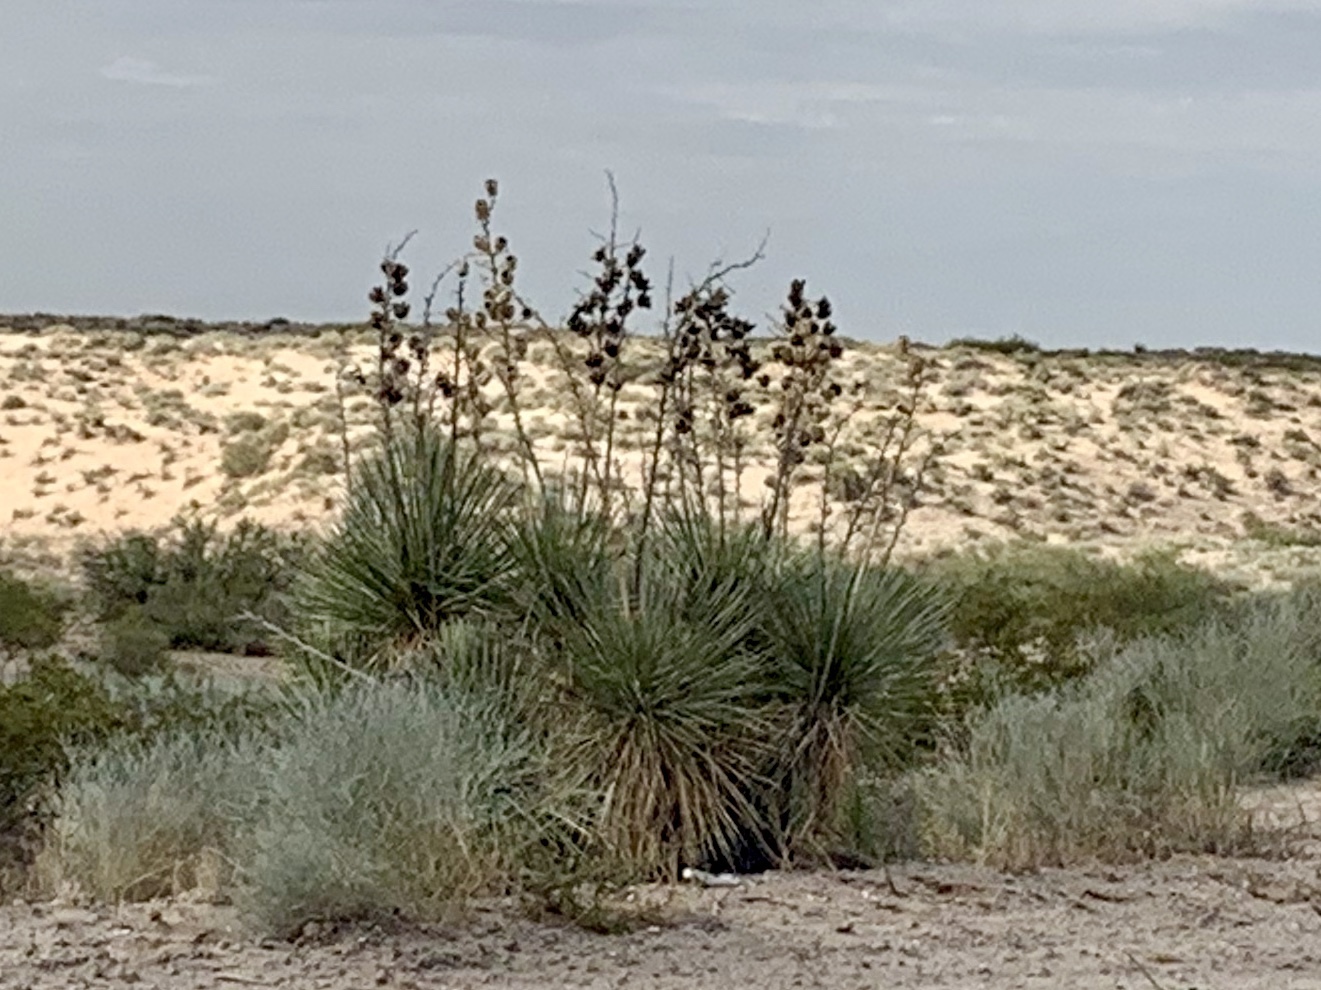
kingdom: Plantae
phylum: Tracheophyta
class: Liliopsida
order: Asparagales
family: Asparagaceae
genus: Yucca
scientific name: Yucca elata
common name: Palmella
